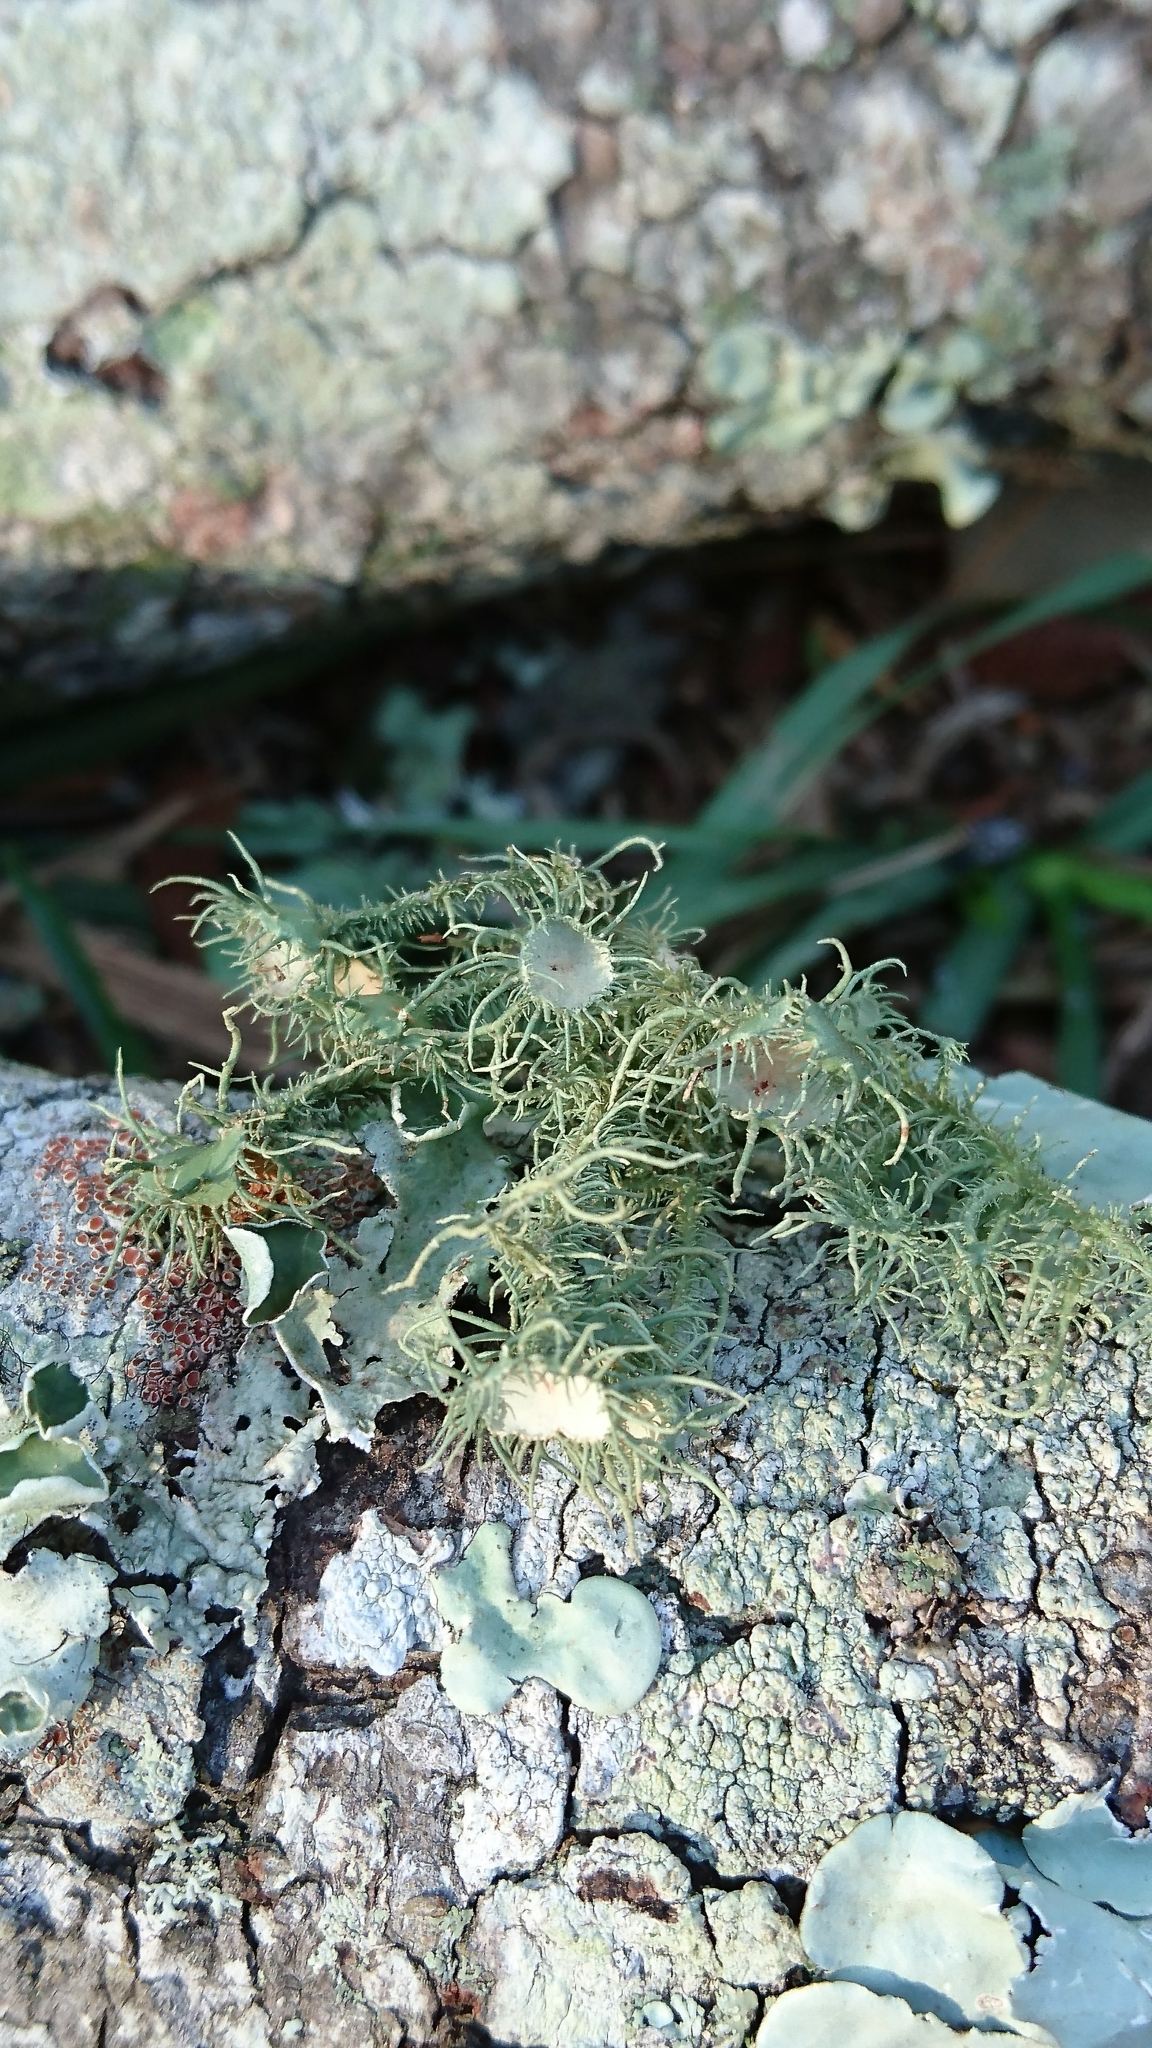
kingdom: Fungi
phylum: Ascomycota
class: Lecanoromycetes
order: Lecanorales
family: Parmeliaceae
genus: Usnea
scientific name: Usnea strigosa
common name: Bushy beard lichen
